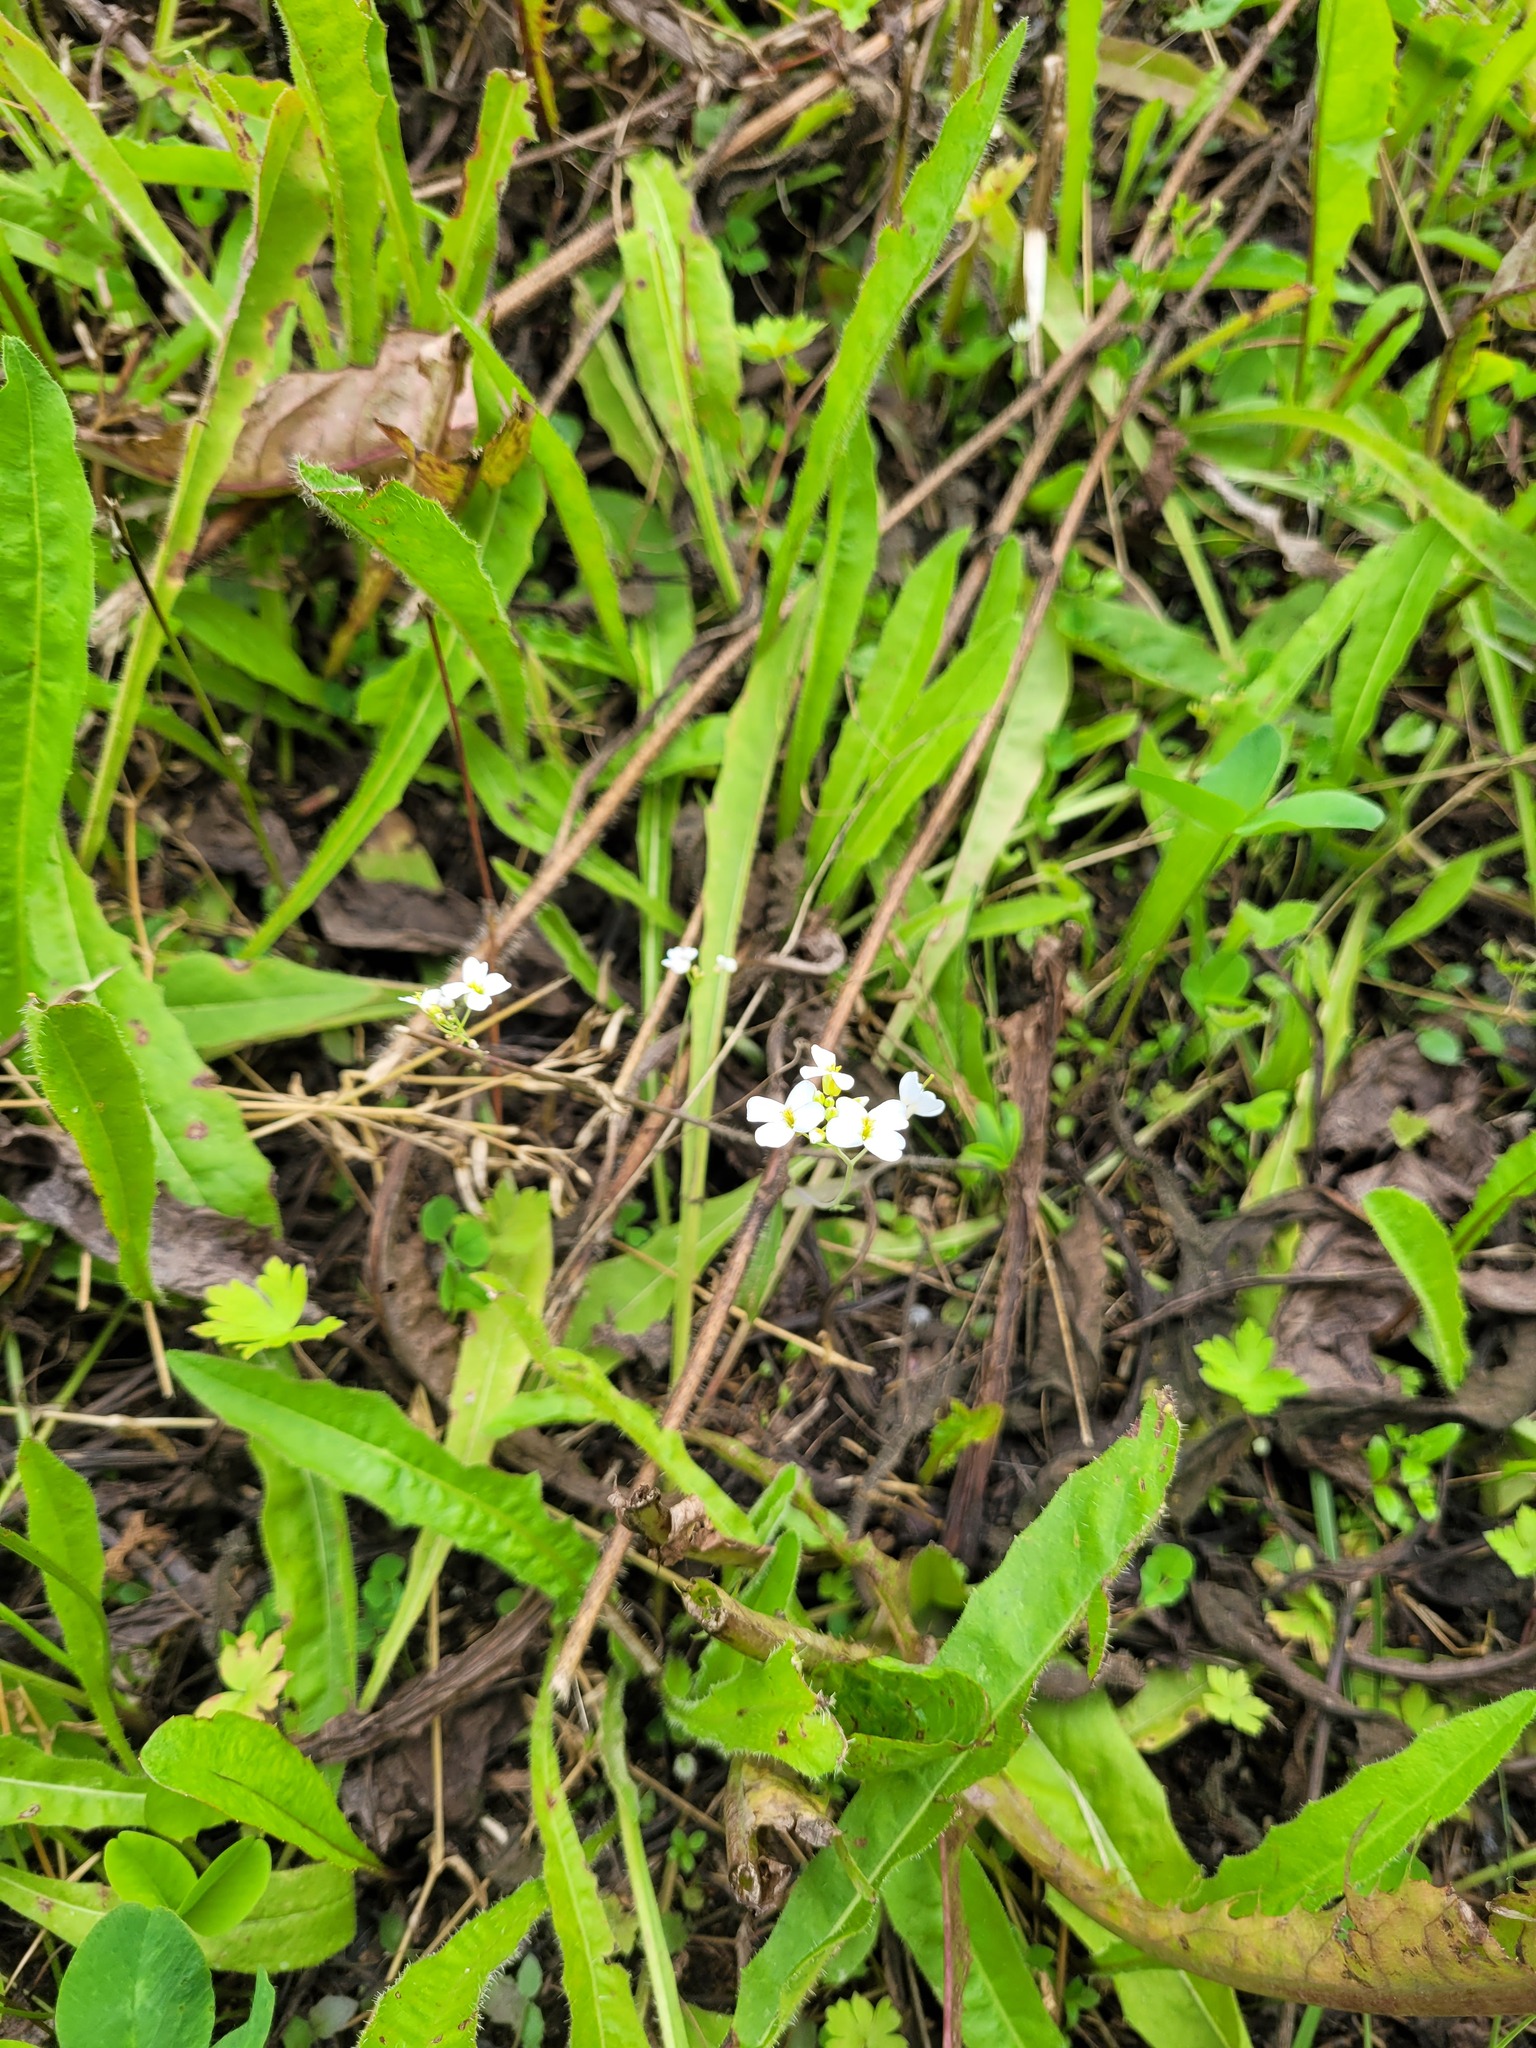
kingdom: Plantae
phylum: Tracheophyta
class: Magnoliopsida
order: Brassicales
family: Brassicaceae
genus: Arabidopsis
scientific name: Arabidopsis arenosa
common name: Sand rock-cress
